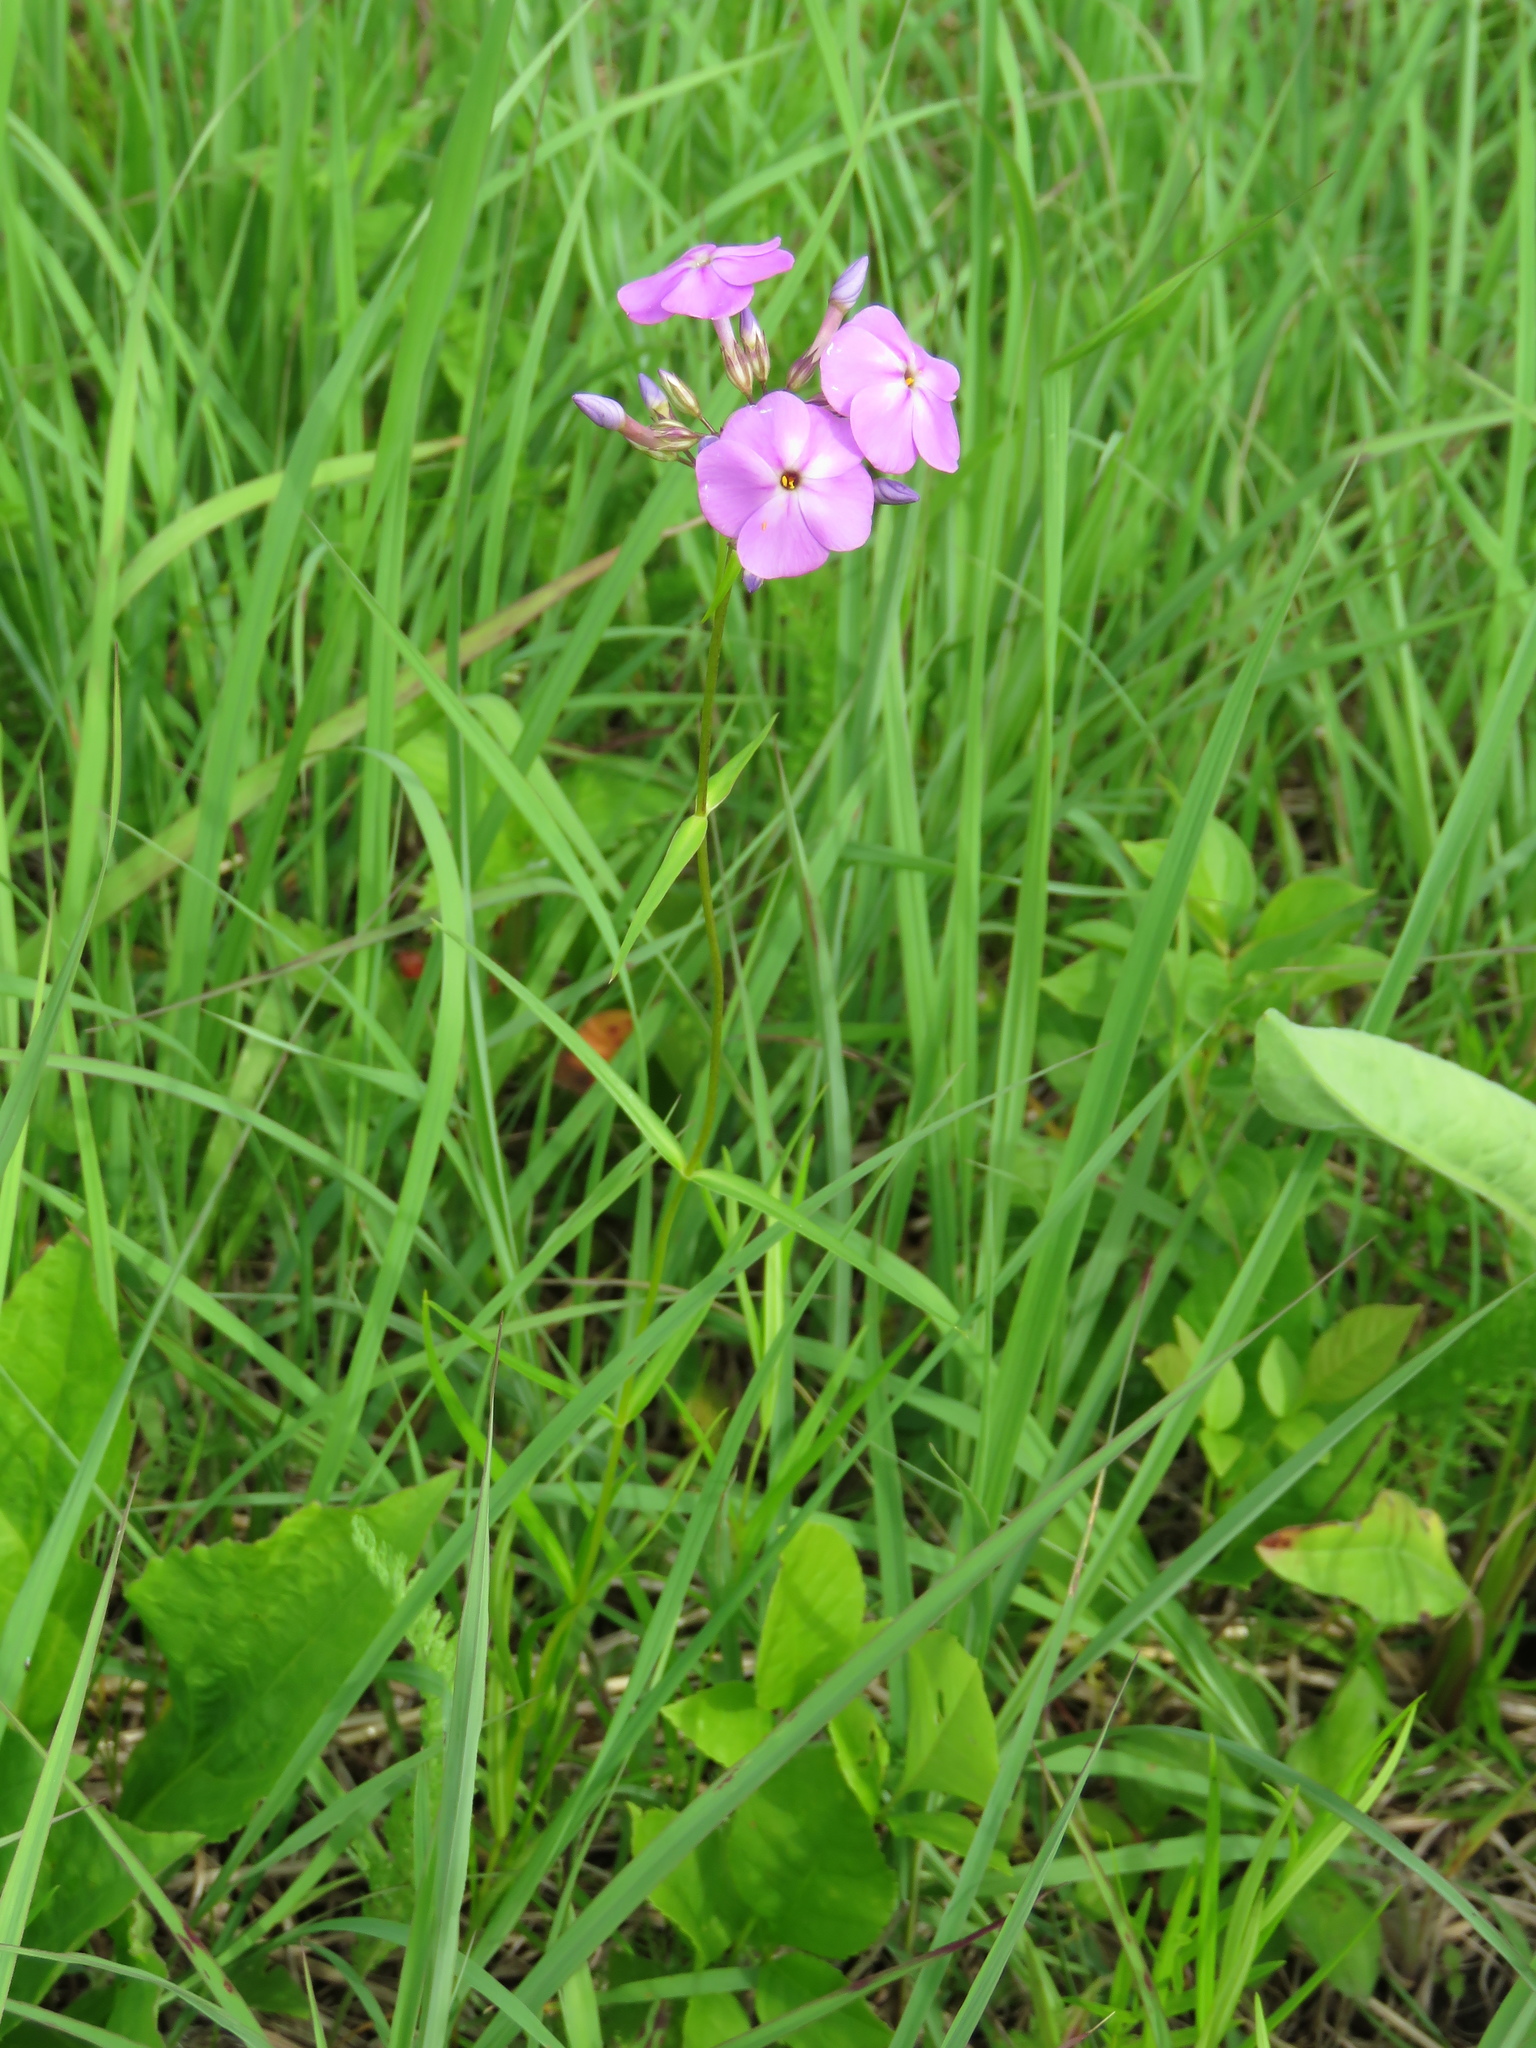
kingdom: Plantae
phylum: Tracheophyta
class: Magnoliopsida
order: Ericales
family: Polemoniaceae
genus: Phlox
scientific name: Phlox glaberrima
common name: Smooth phlox
